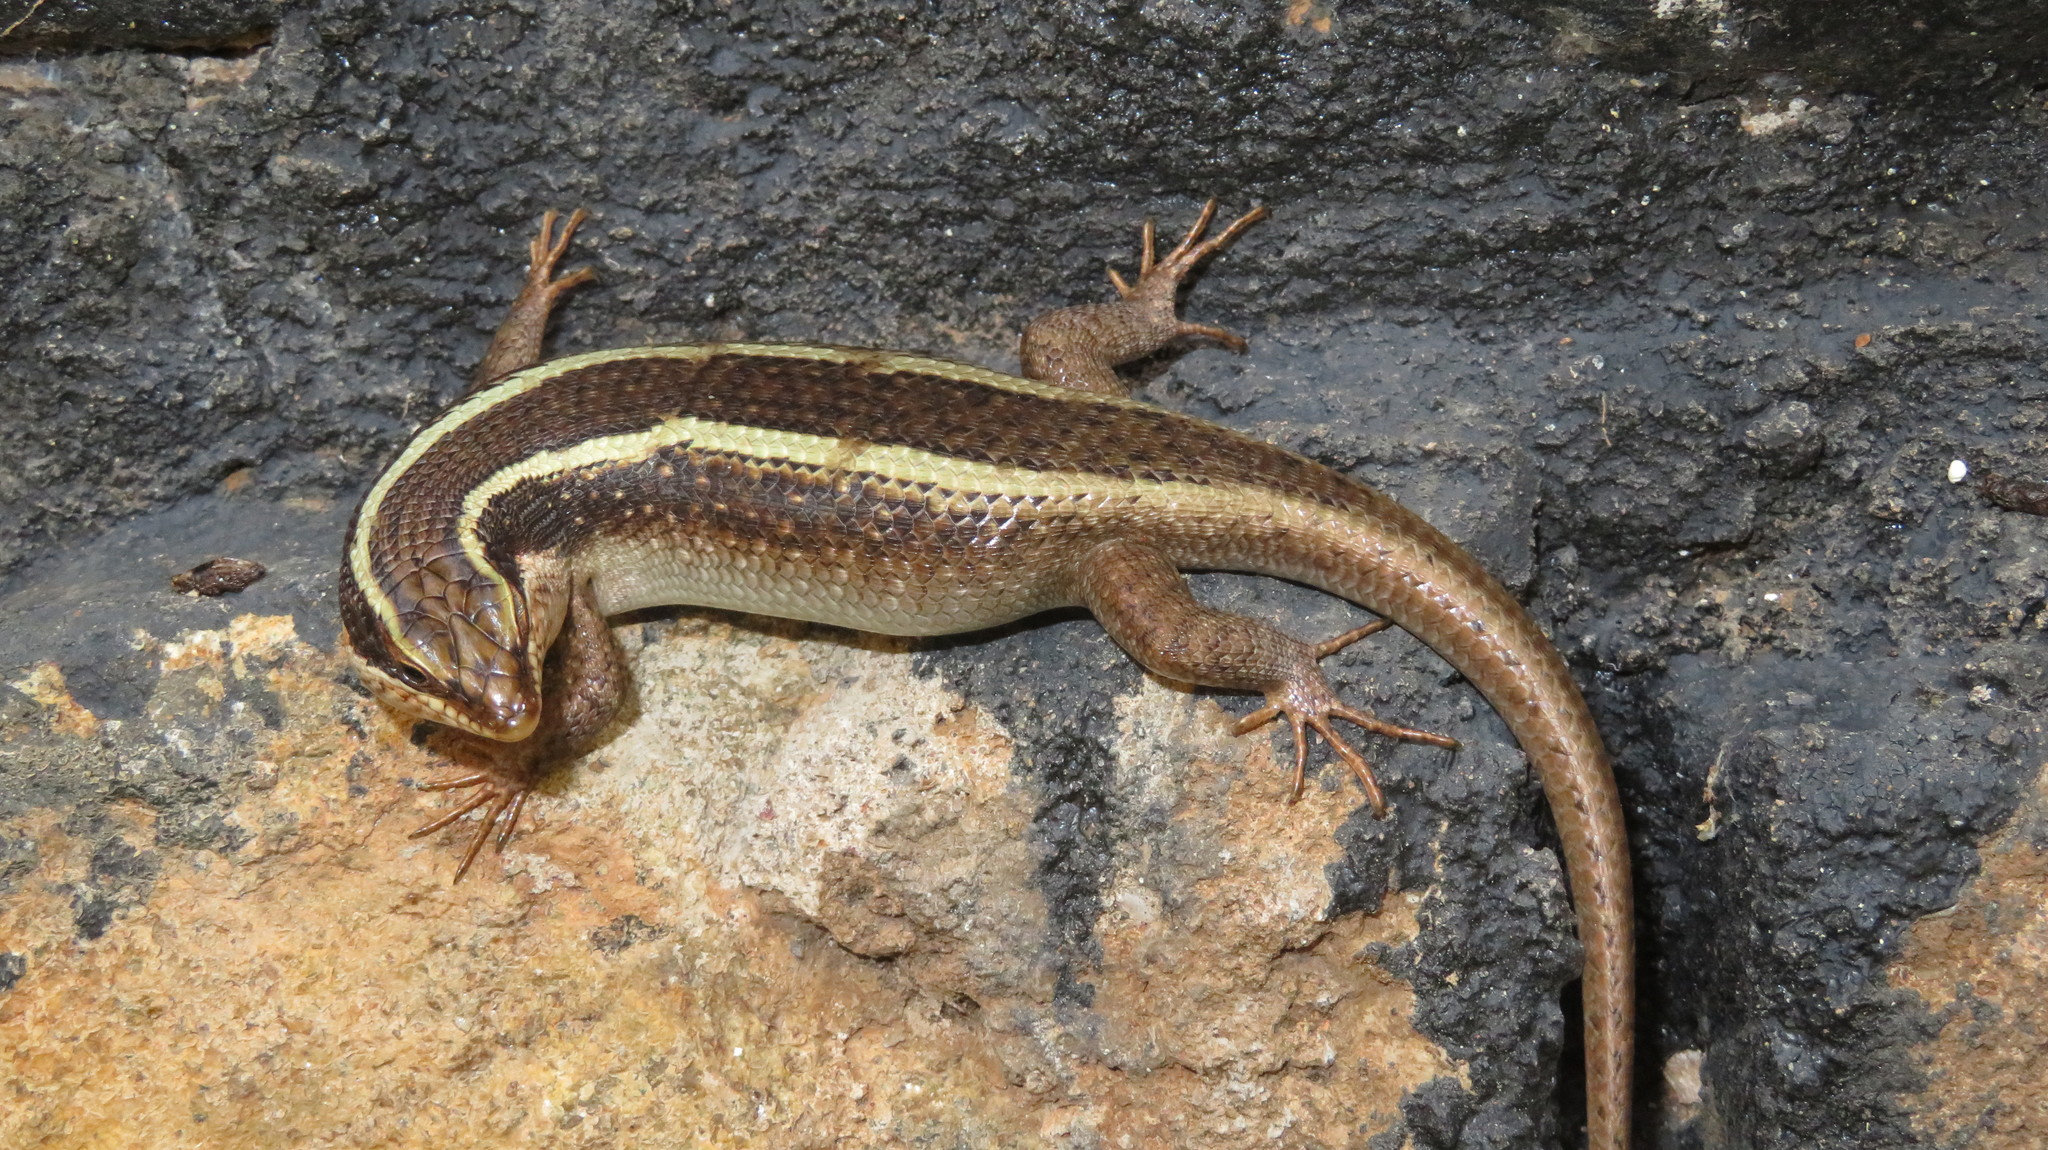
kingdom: Animalia
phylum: Chordata
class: Squamata
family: Scincidae
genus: Trachylepis
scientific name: Trachylepis striata
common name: African striped mabuya
